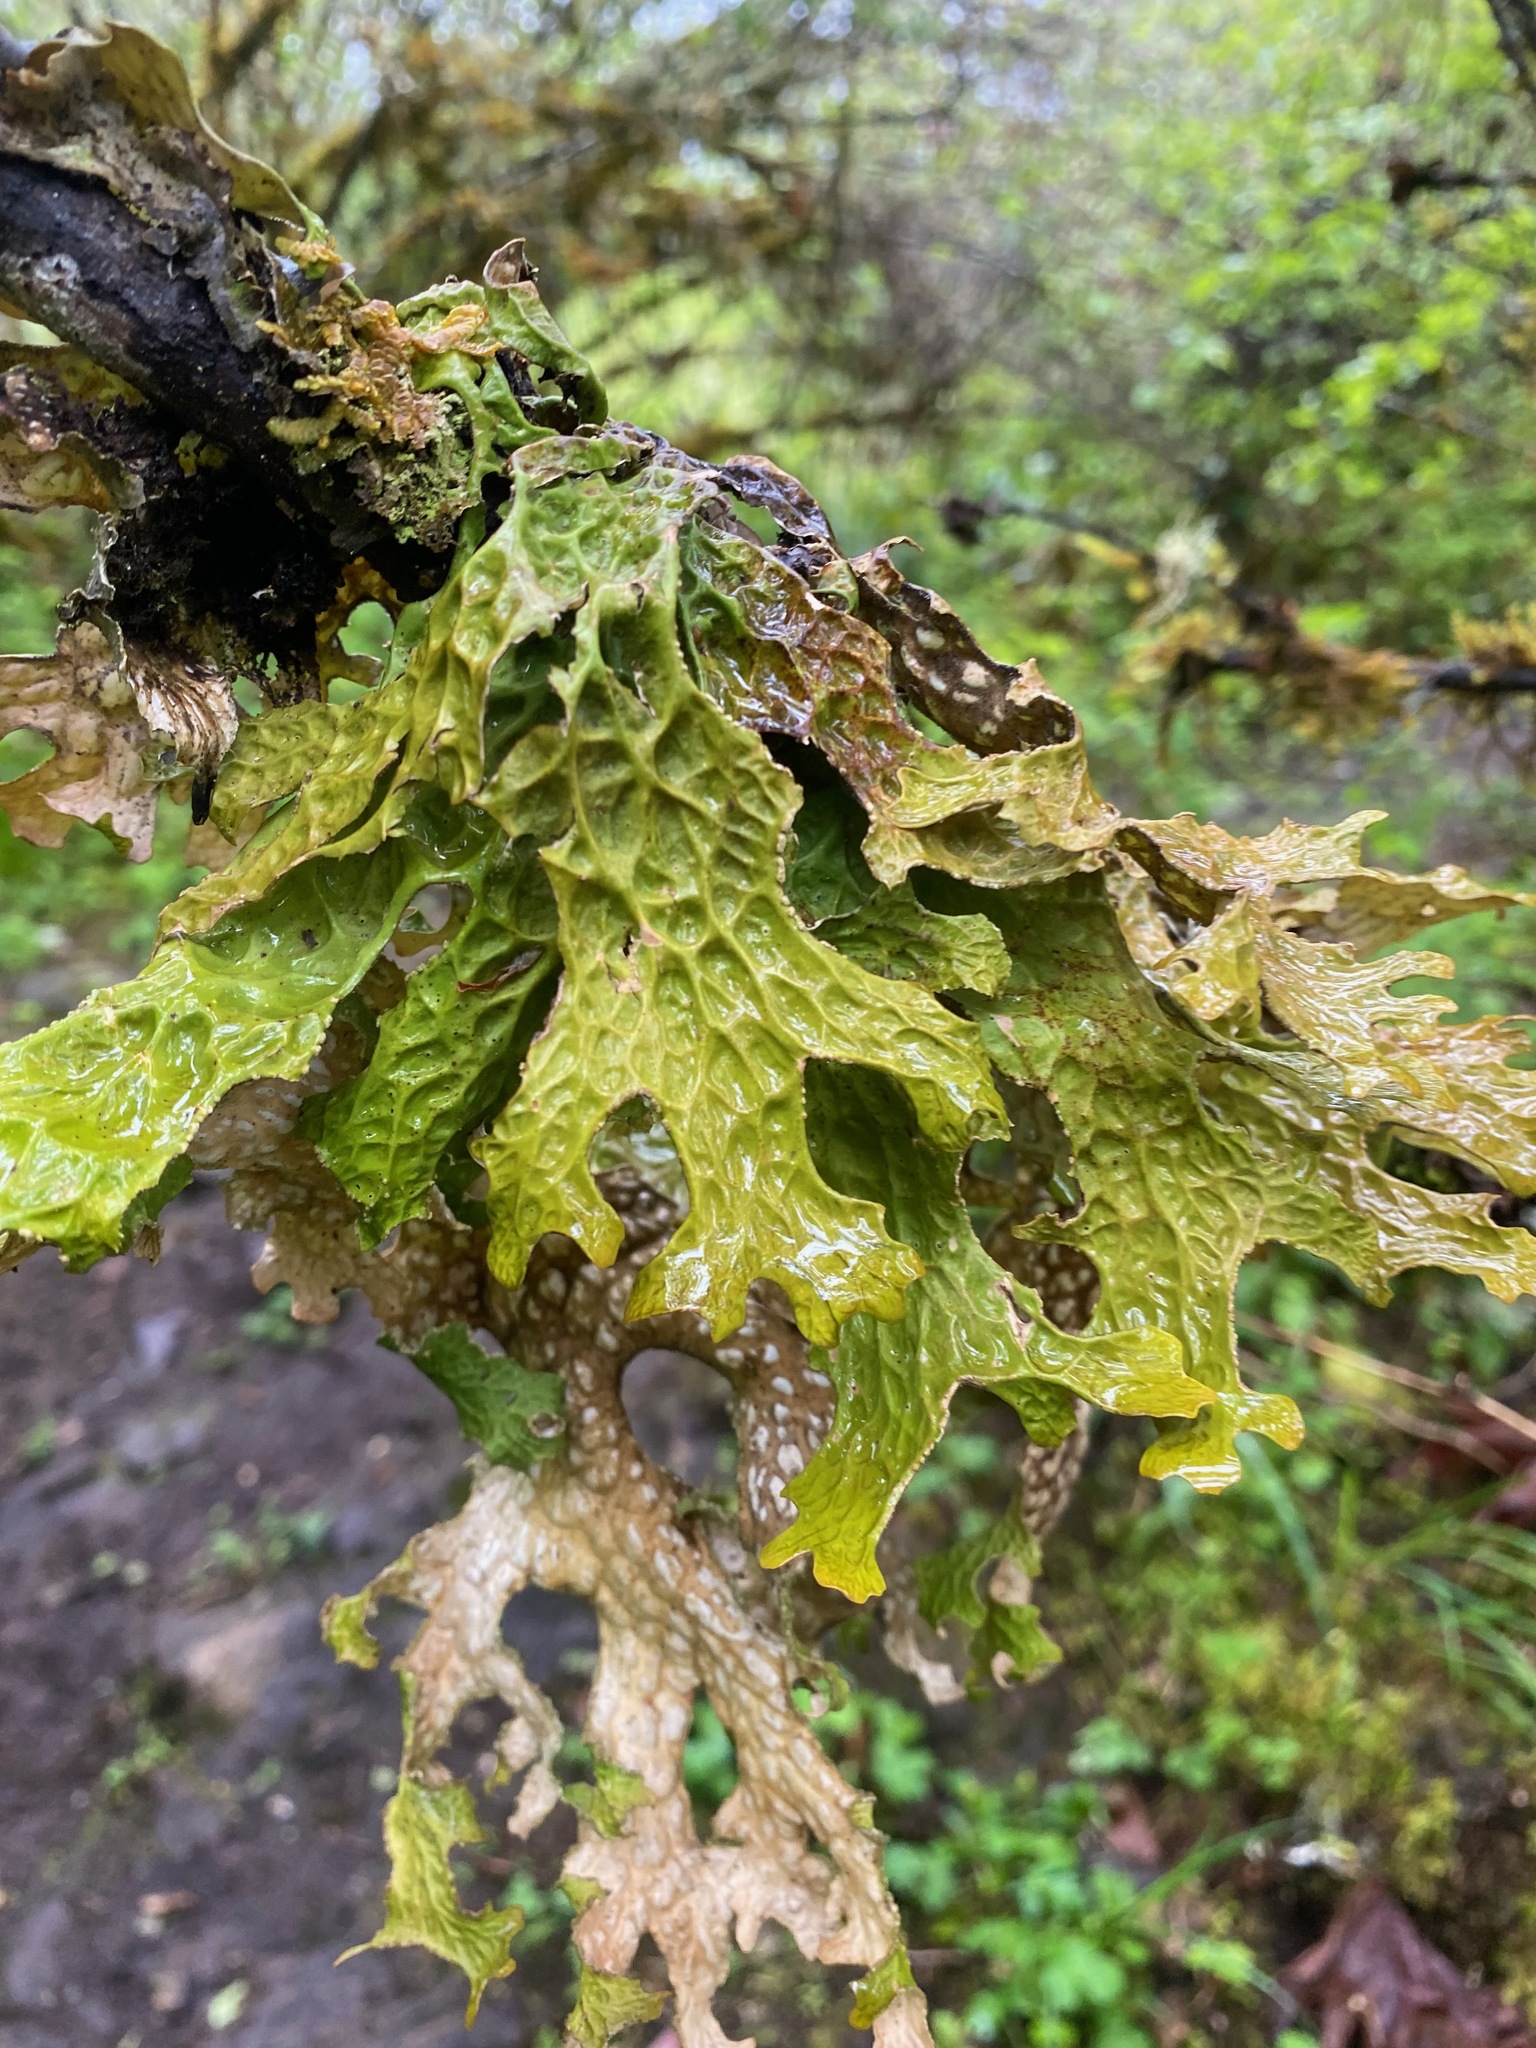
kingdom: Fungi
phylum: Ascomycota
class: Lecanoromycetes
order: Peltigerales
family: Lobariaceae
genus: Lobaria
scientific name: Lobaria pulmonaria
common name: Lungwort
